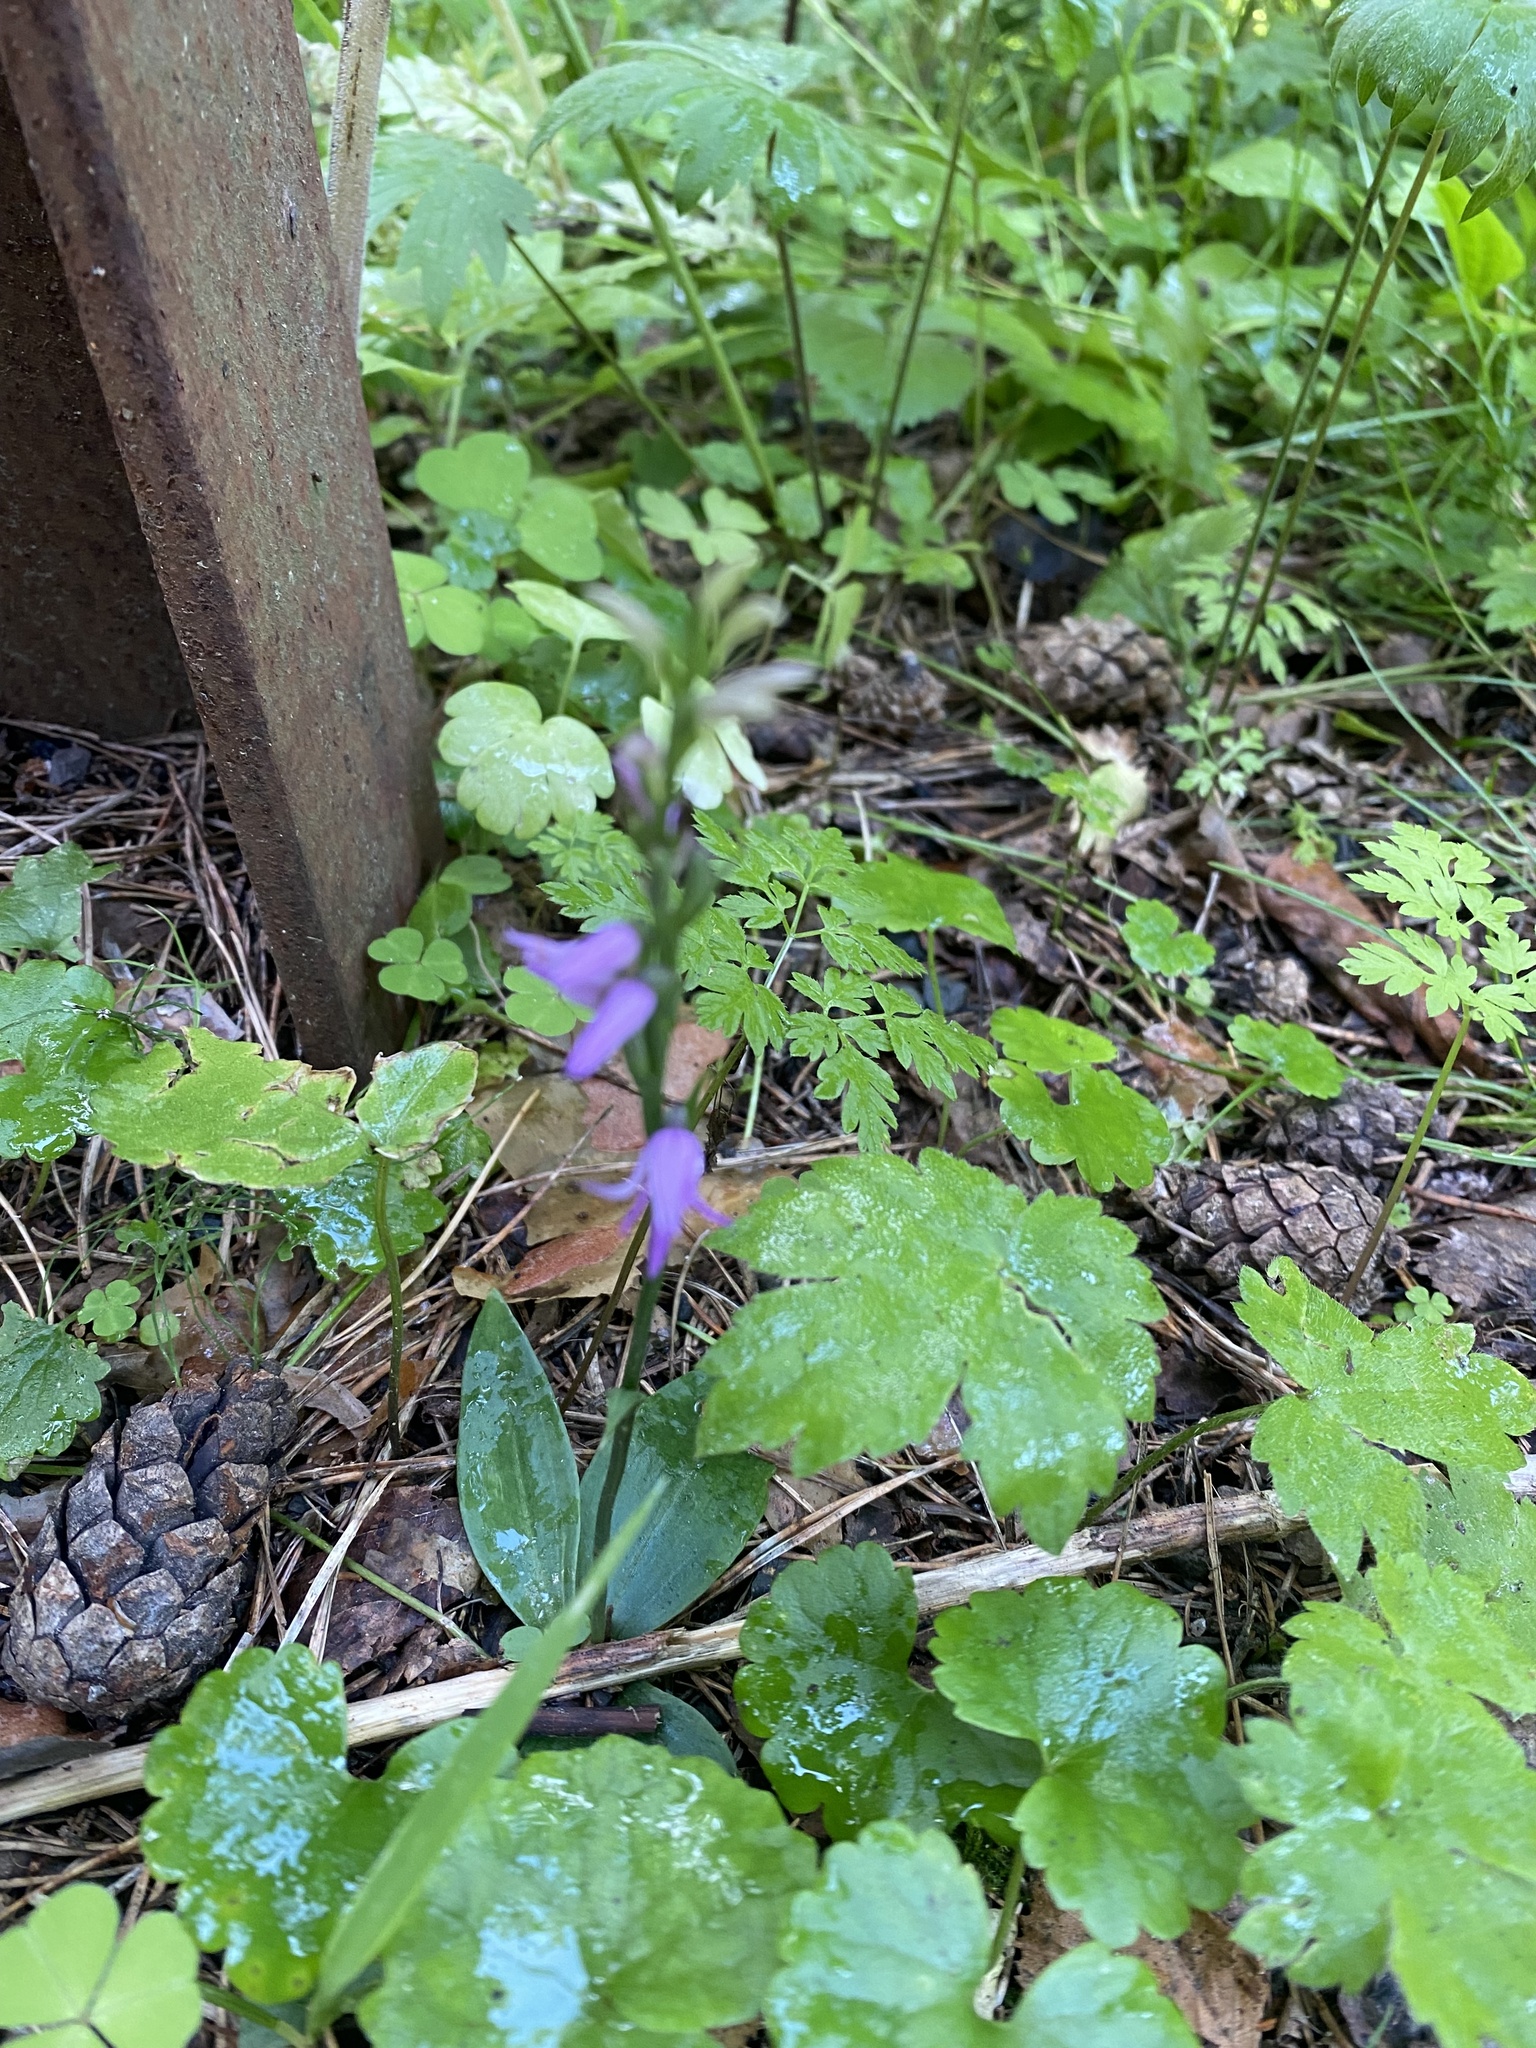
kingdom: Plantae
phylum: Tracheophyta
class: Liliopsida
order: Asparagales
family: Orchidaceae
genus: Hemipilia
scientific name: Hemipilia cucullata
